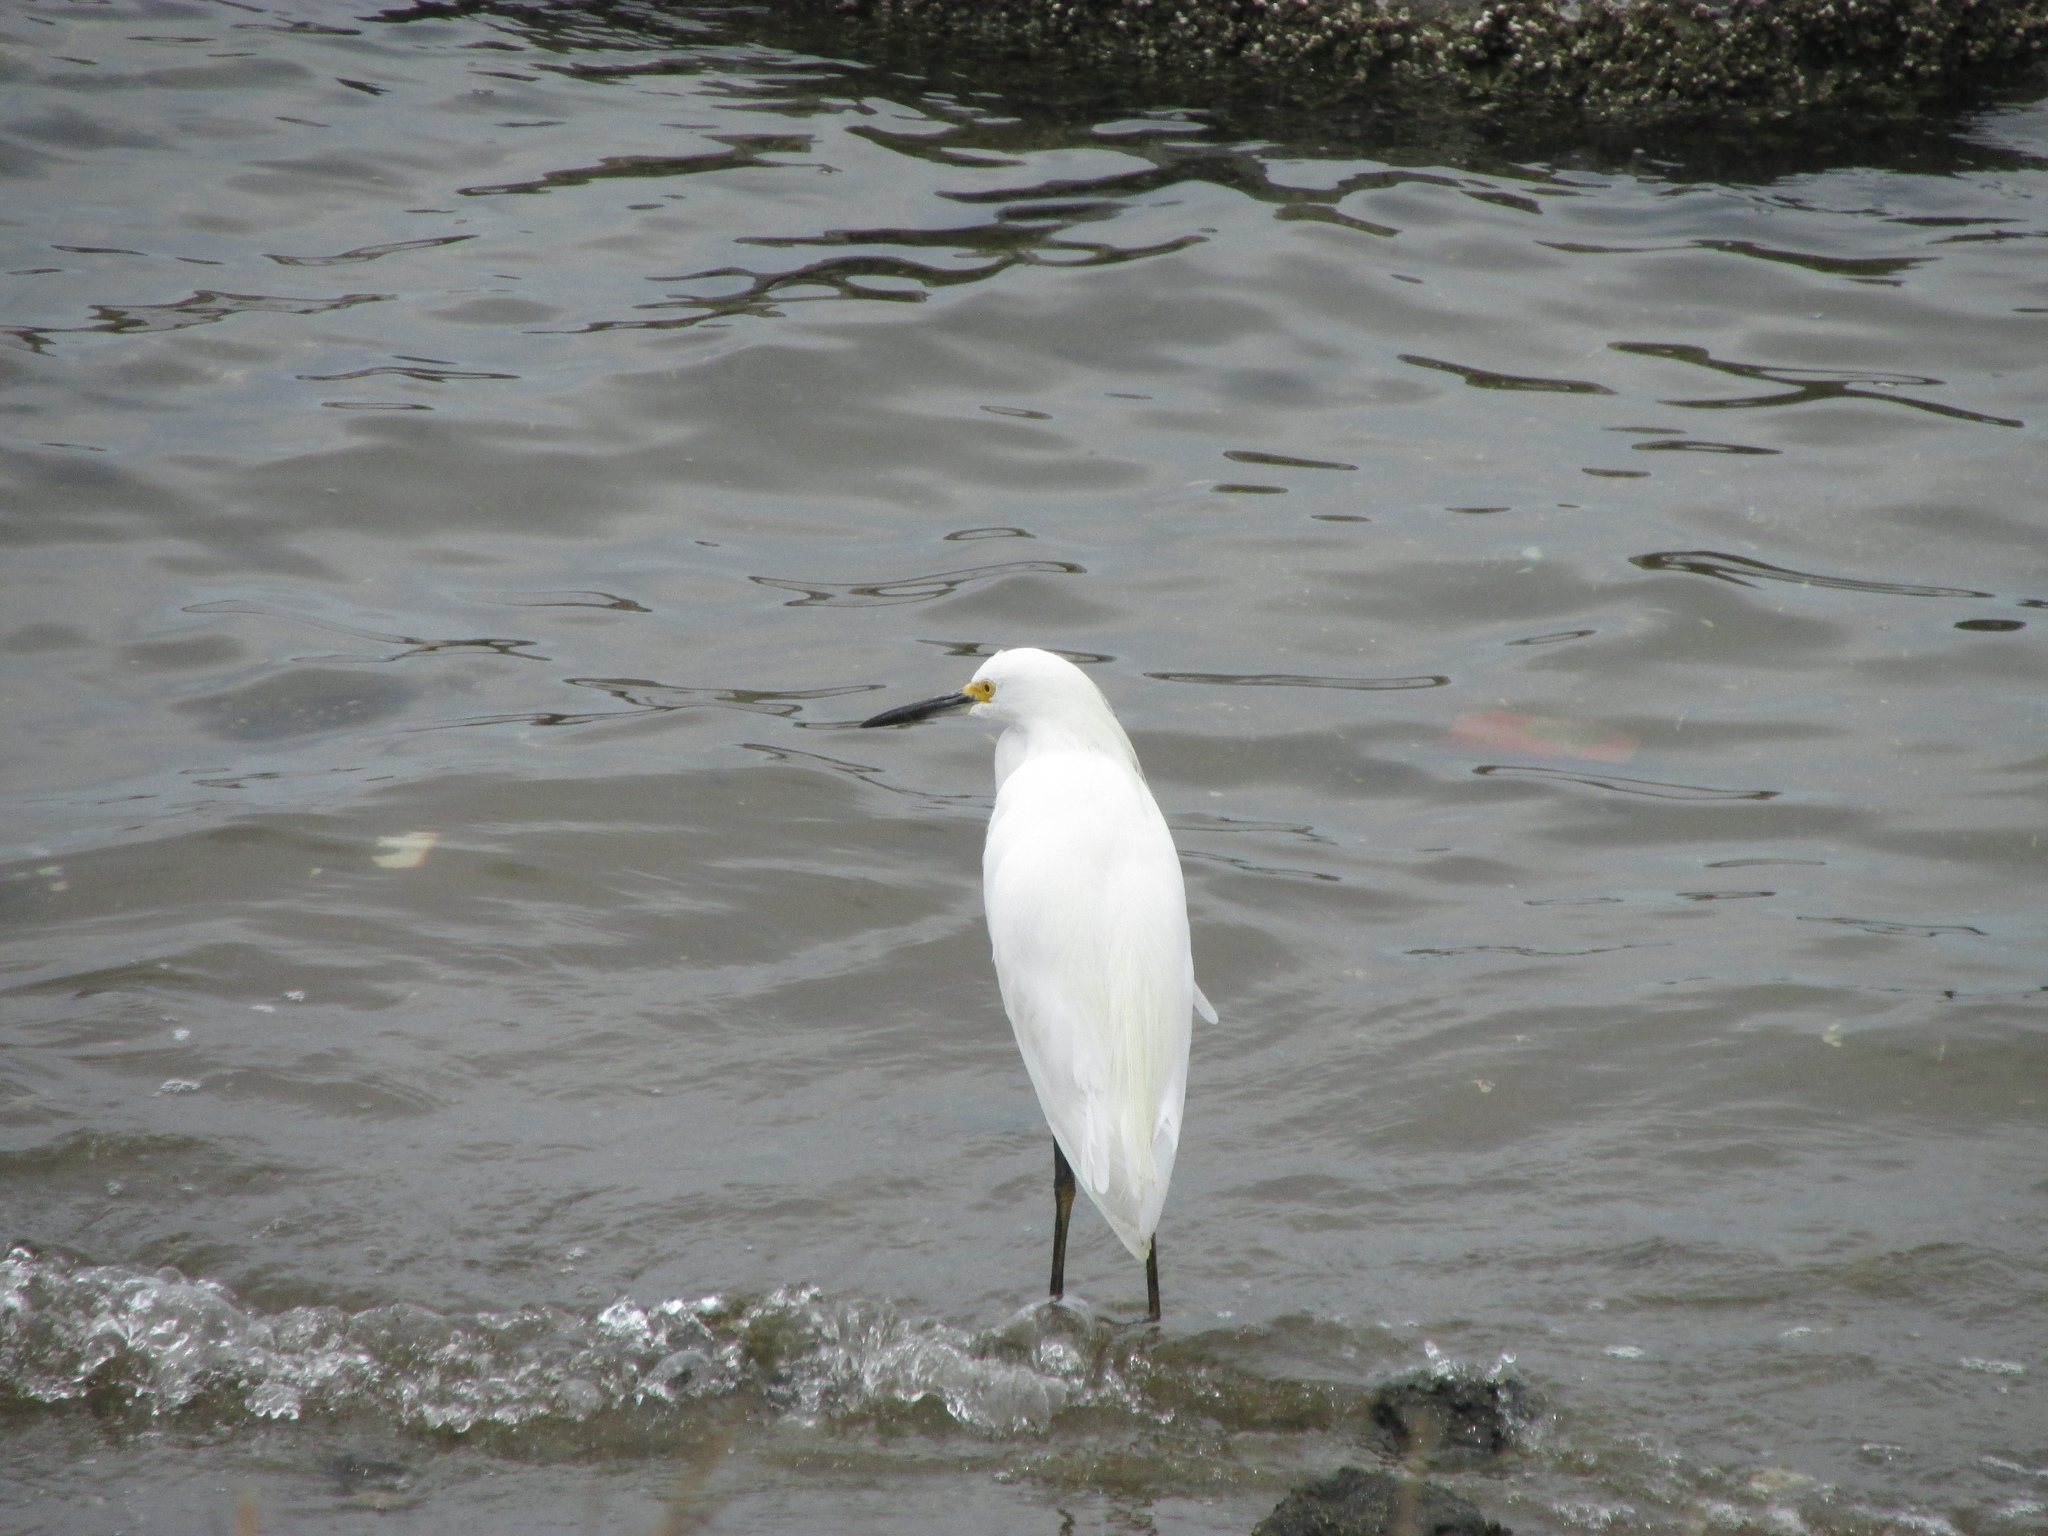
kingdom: Animalia
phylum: Chordata
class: Aves
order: Pelecaniformes
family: Ardeidae
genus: Egretta
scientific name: Egretta thula
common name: Snowy egret
